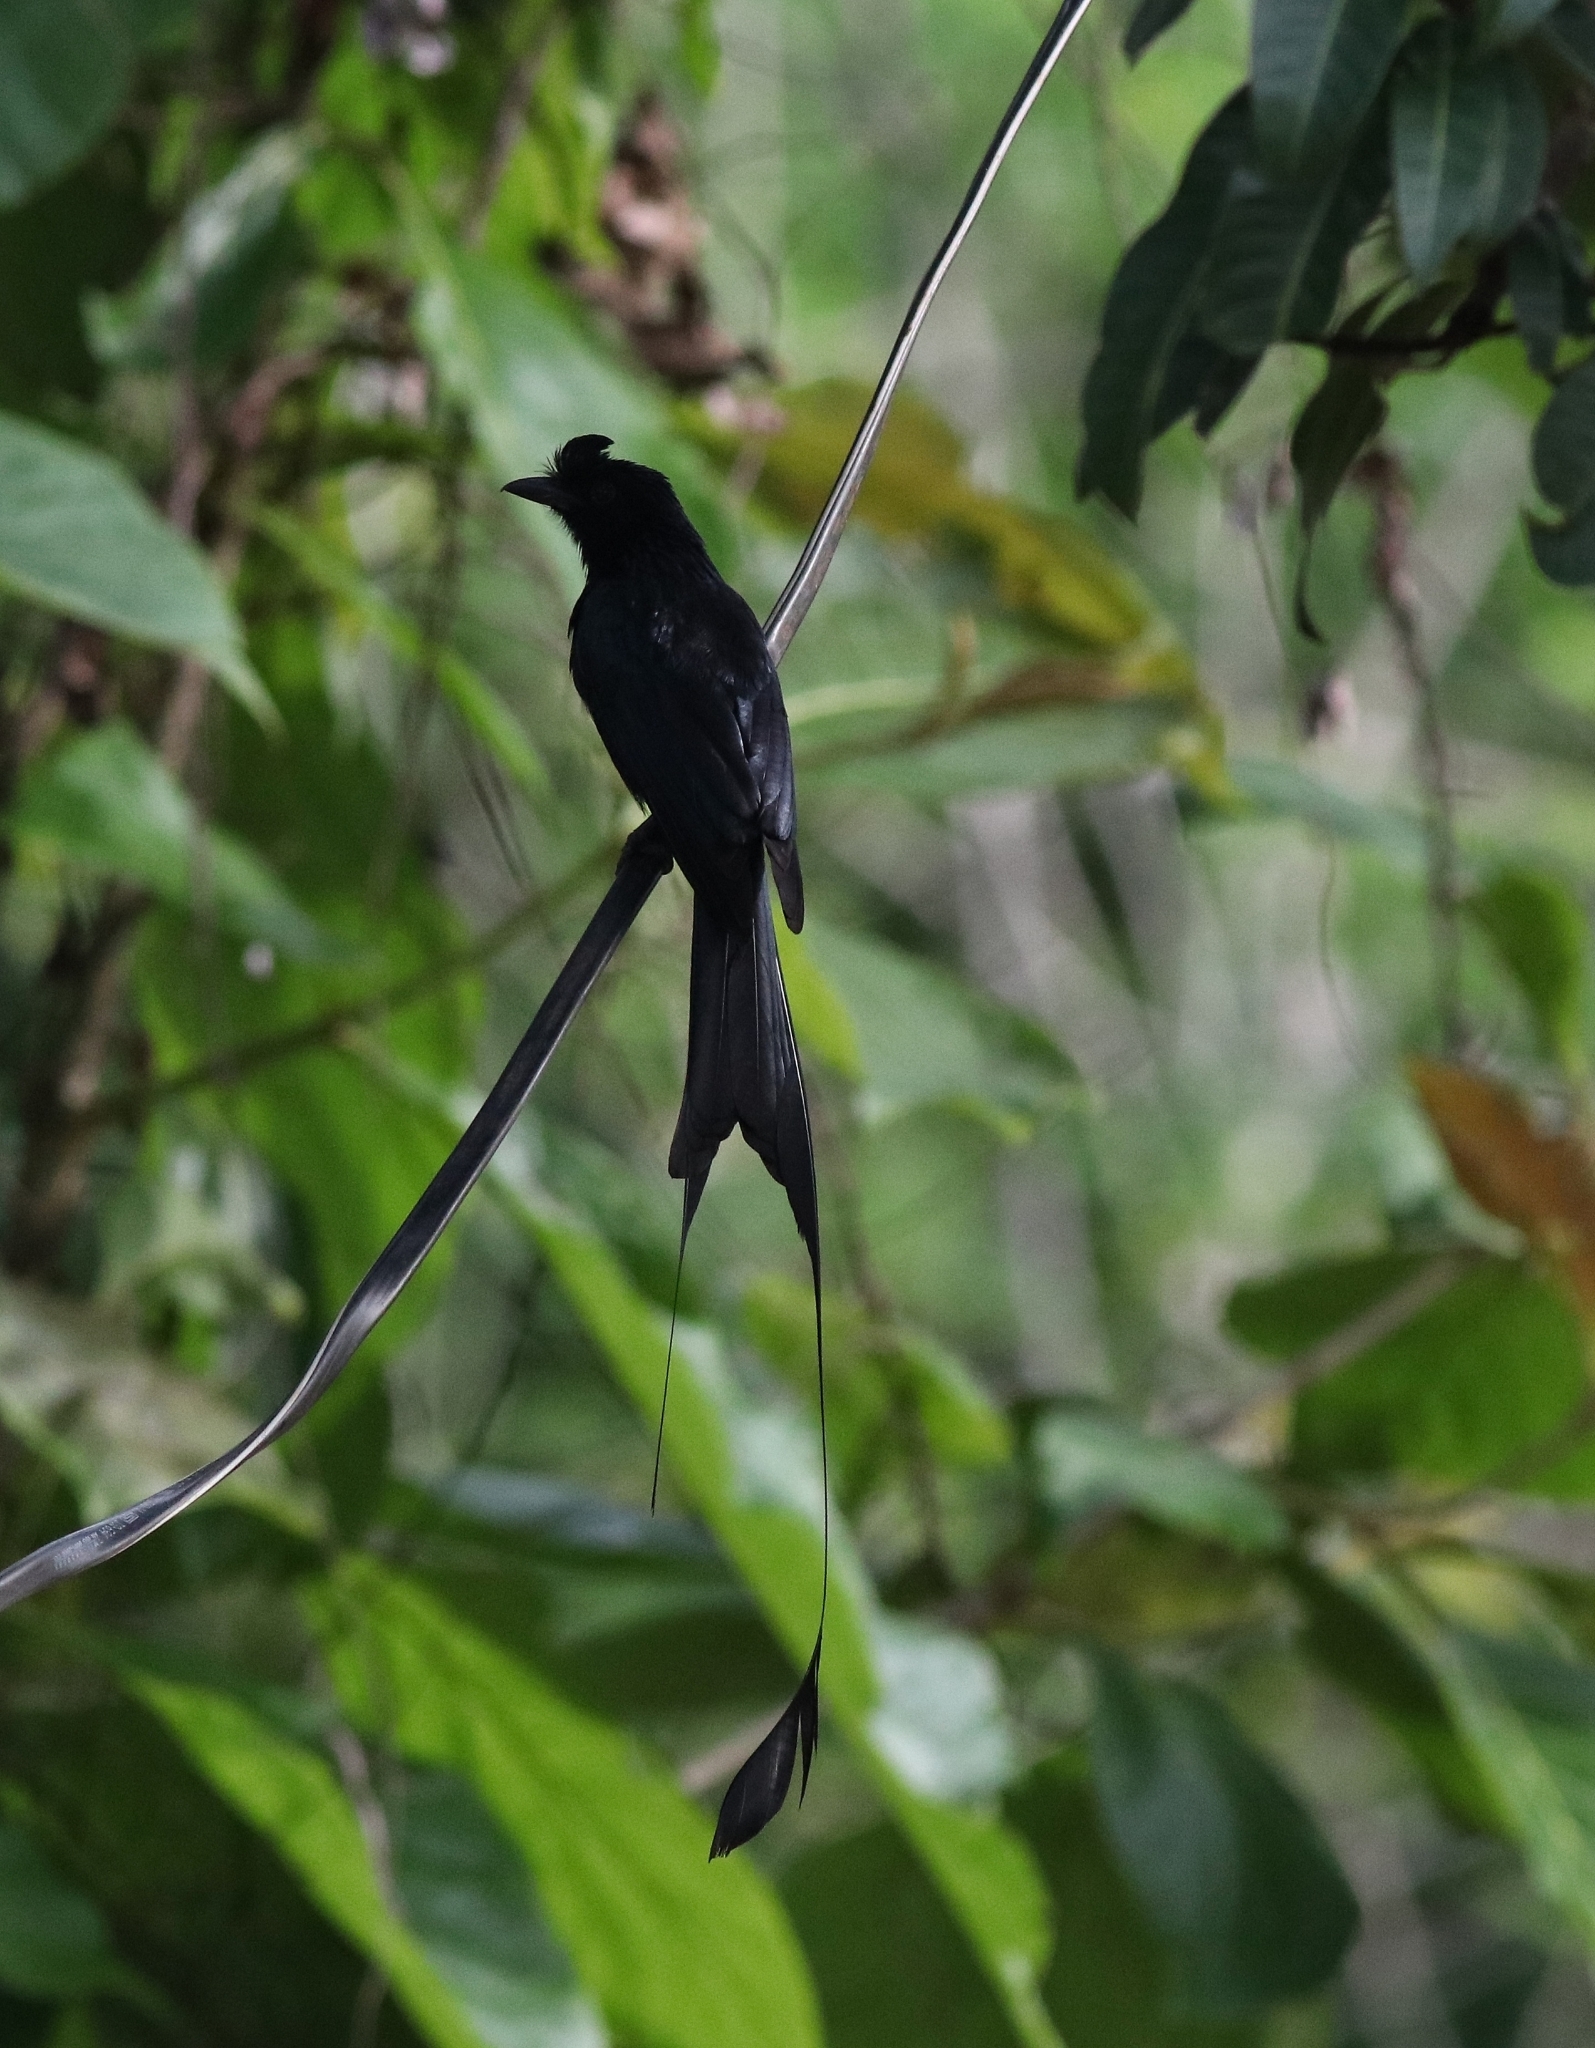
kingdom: Animalia
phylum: Chordata
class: Aves
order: Passeriformes
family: Dicruridae
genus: Dicrurus
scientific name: Dicrurus paradiseus
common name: Greater racket-tailed drongo
